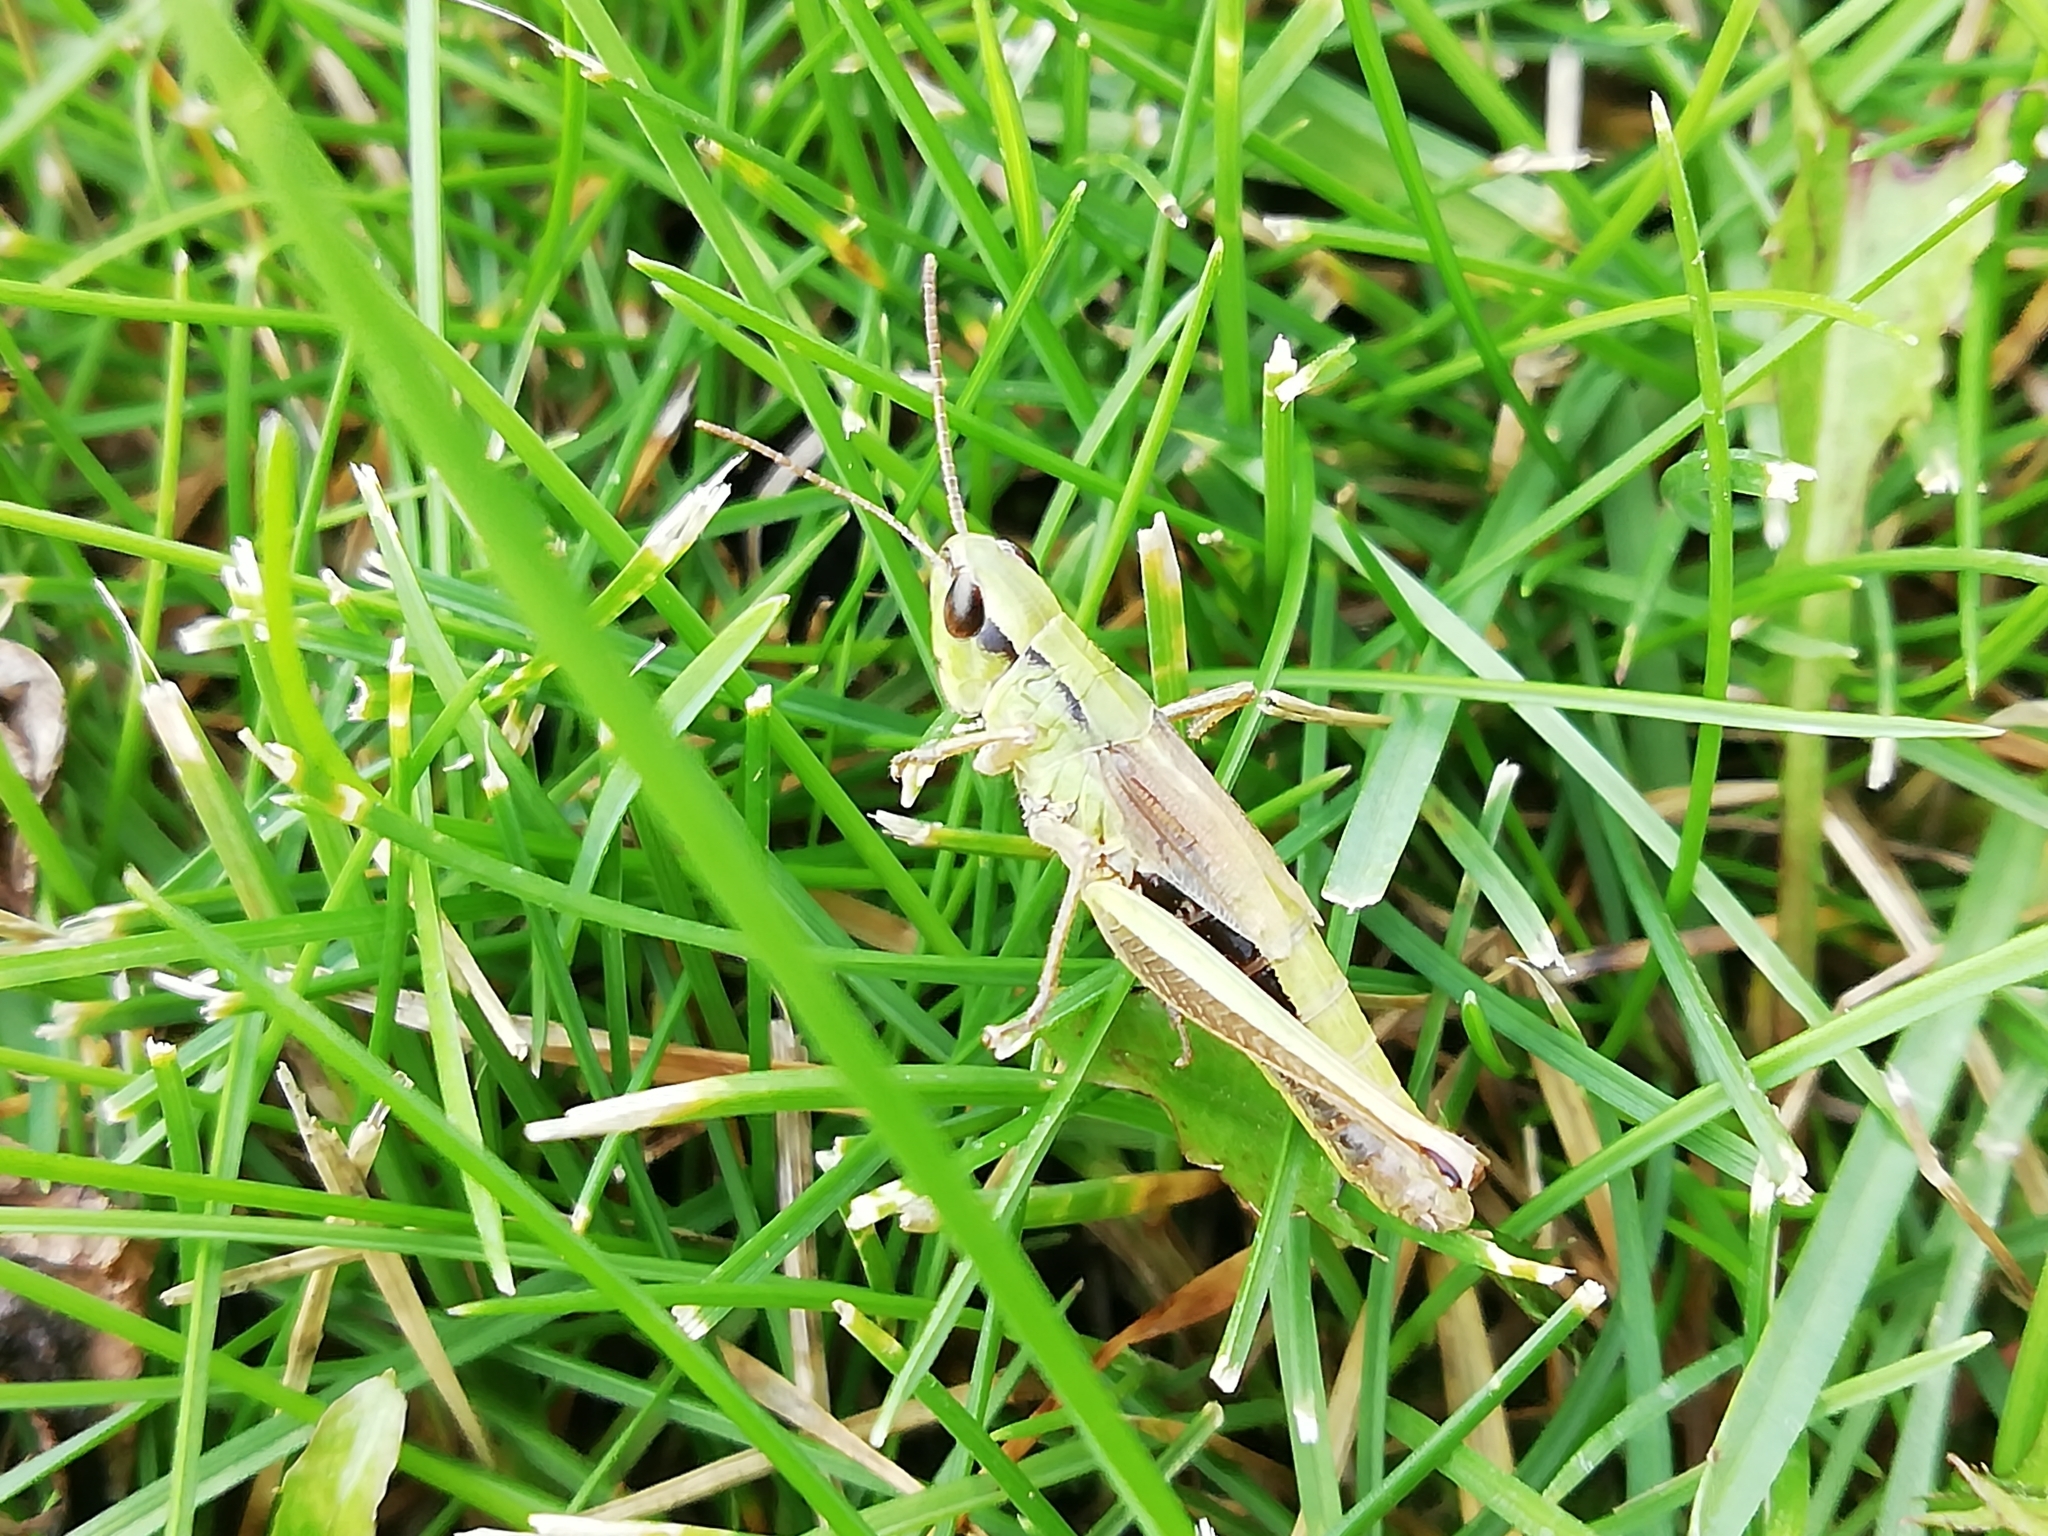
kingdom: Animalia
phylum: Arthropoda
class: Insecta
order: Orthoptera
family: Acrididae
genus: Pseudochorthippus
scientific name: Pseudochorthippus parallelus
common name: Meadow grasshopper
